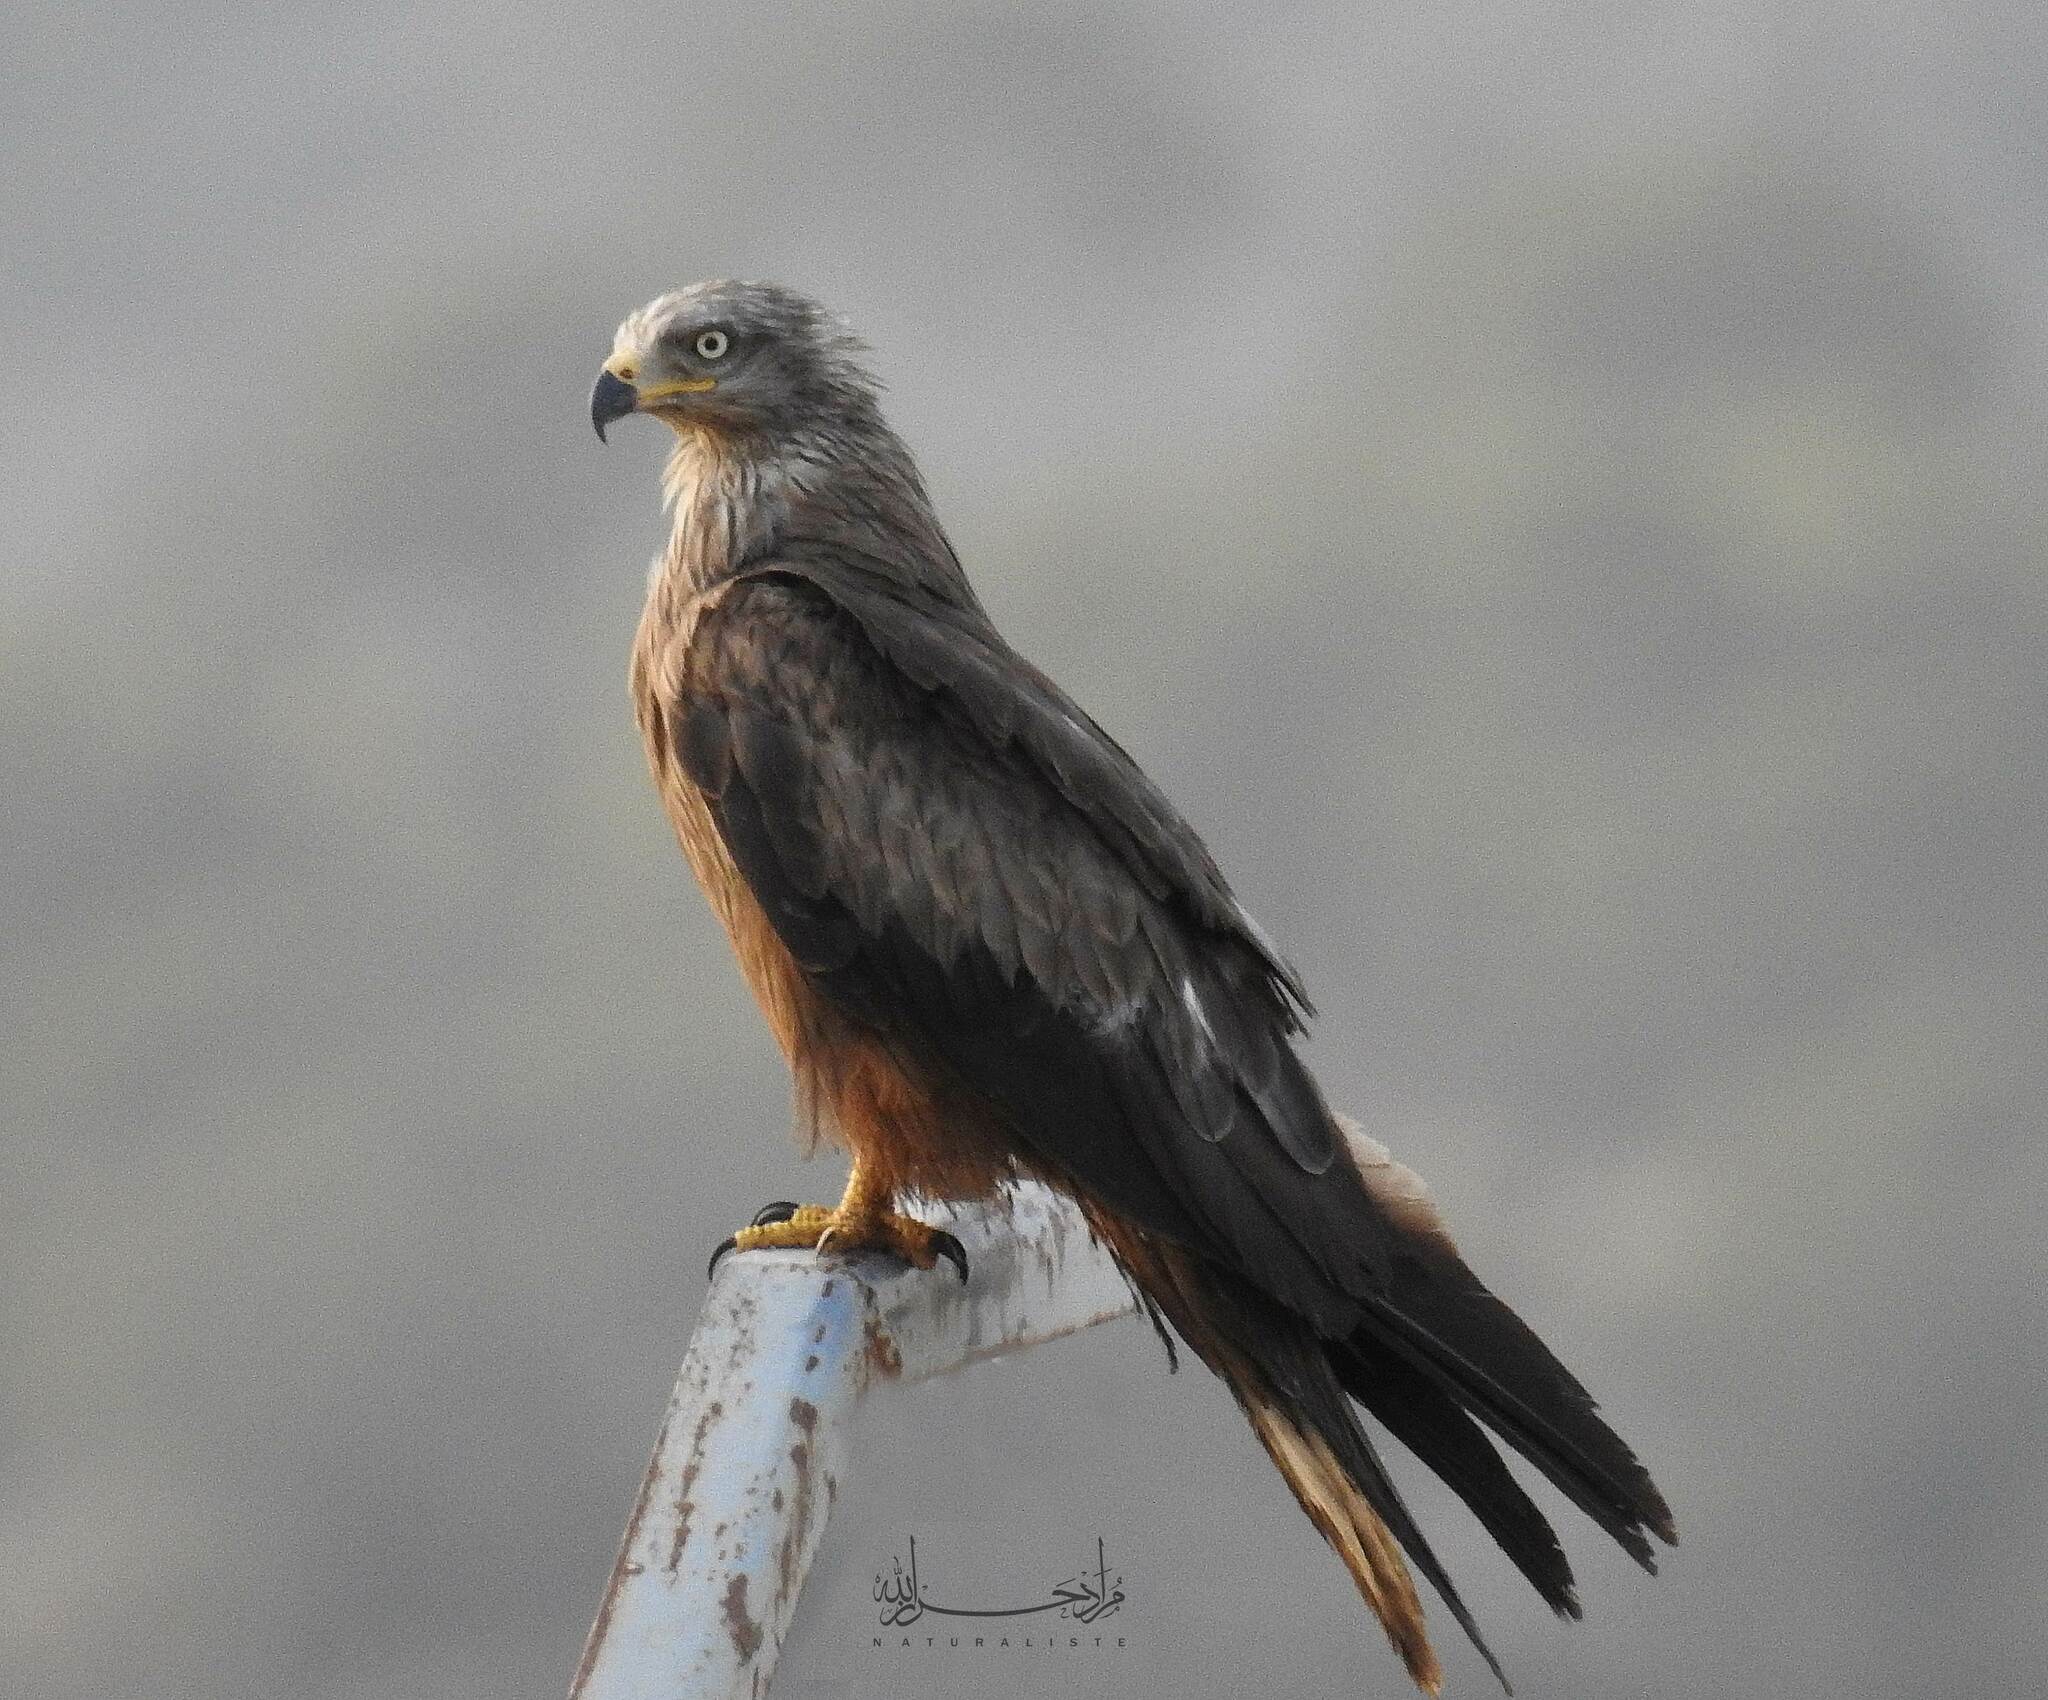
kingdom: Animalia
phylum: Chordata
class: Aves
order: Accipitriformes
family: Accipitridae
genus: Milvus
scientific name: Milvus migrans
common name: Black kite
